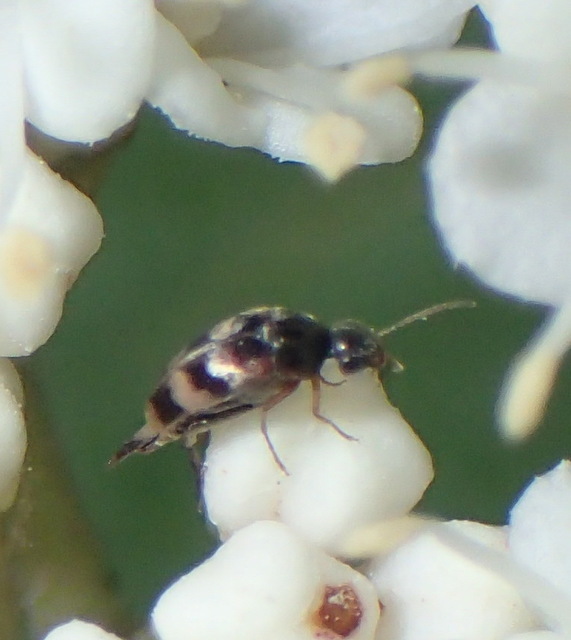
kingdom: Animalia
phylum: Arthropoda
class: Insecta
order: Coleoptera
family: Mordellidae
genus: Falsomordellistena
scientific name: Falsomordellistena pubescens
